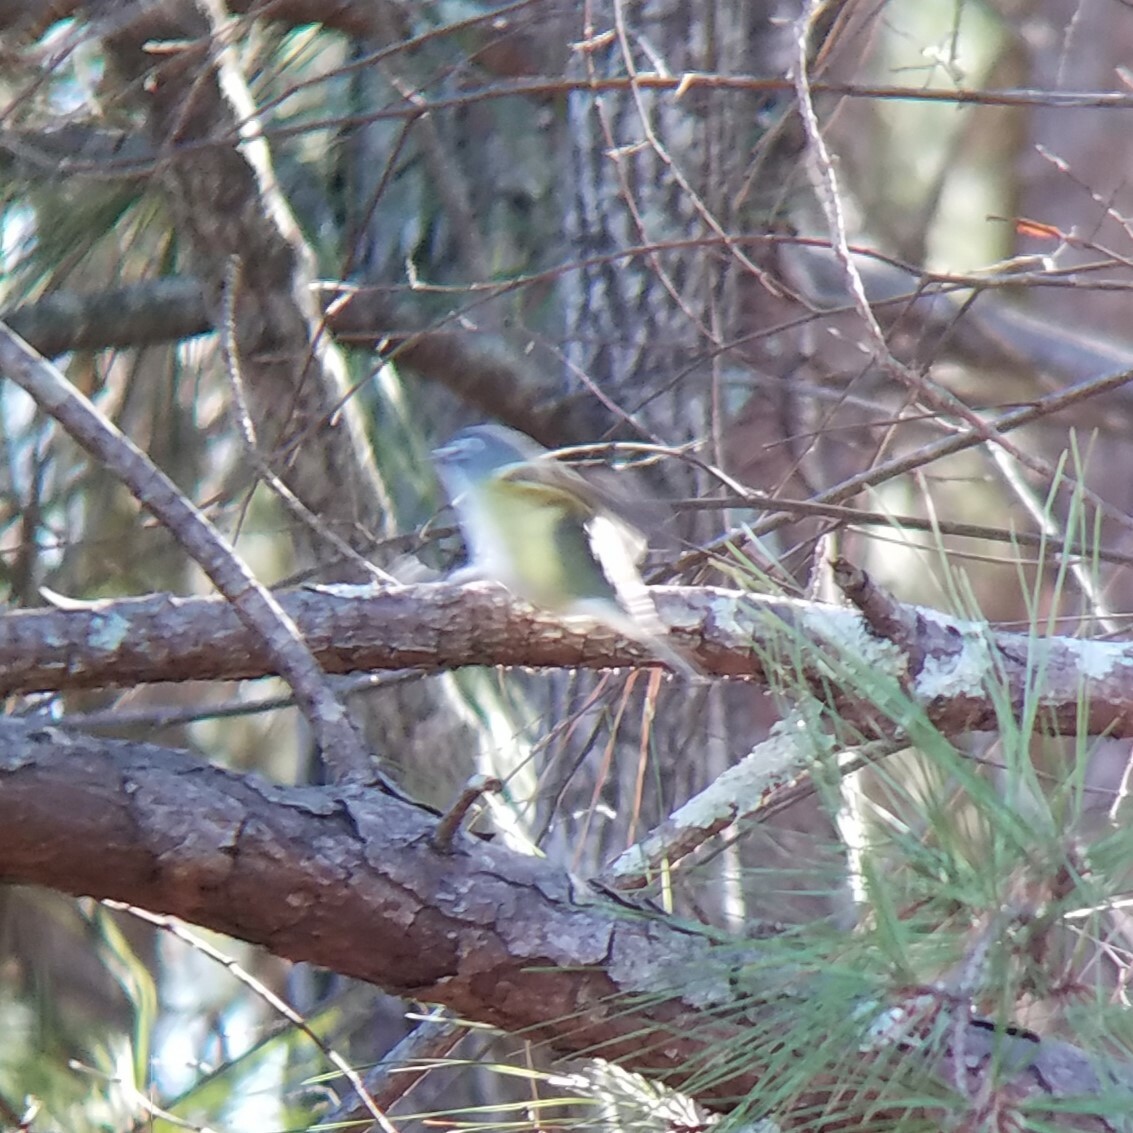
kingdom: Animalia
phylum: Chordata
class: Aves
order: Passeriformes
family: Vireonidae
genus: Vireo
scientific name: Vireo solitarius
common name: Blue-headed vireo
